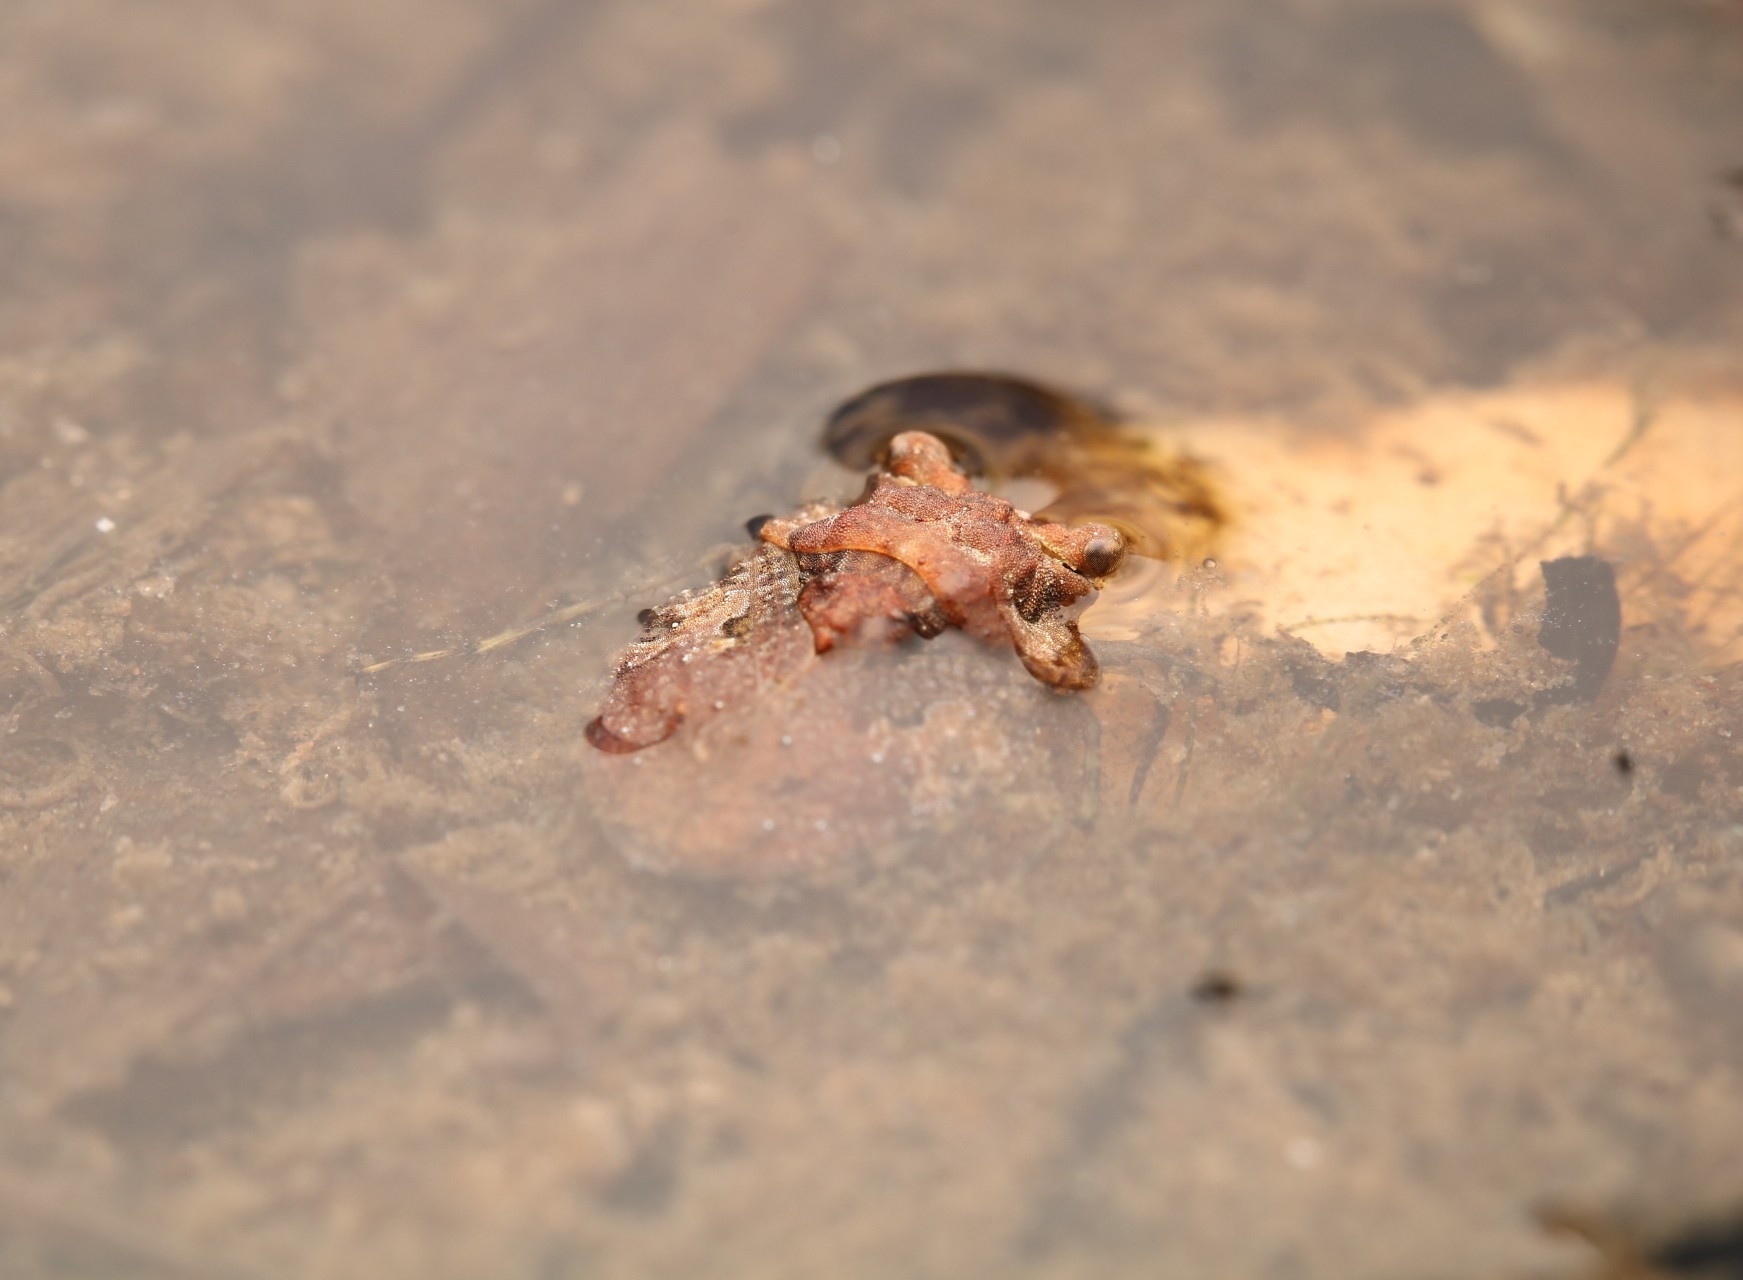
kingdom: Animalia
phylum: Arthropoda
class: Insecta
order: Hemiptera
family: Gelastocoridae
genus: Gelastocoris
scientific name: Gelastocoris oculatus
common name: Toad bug
